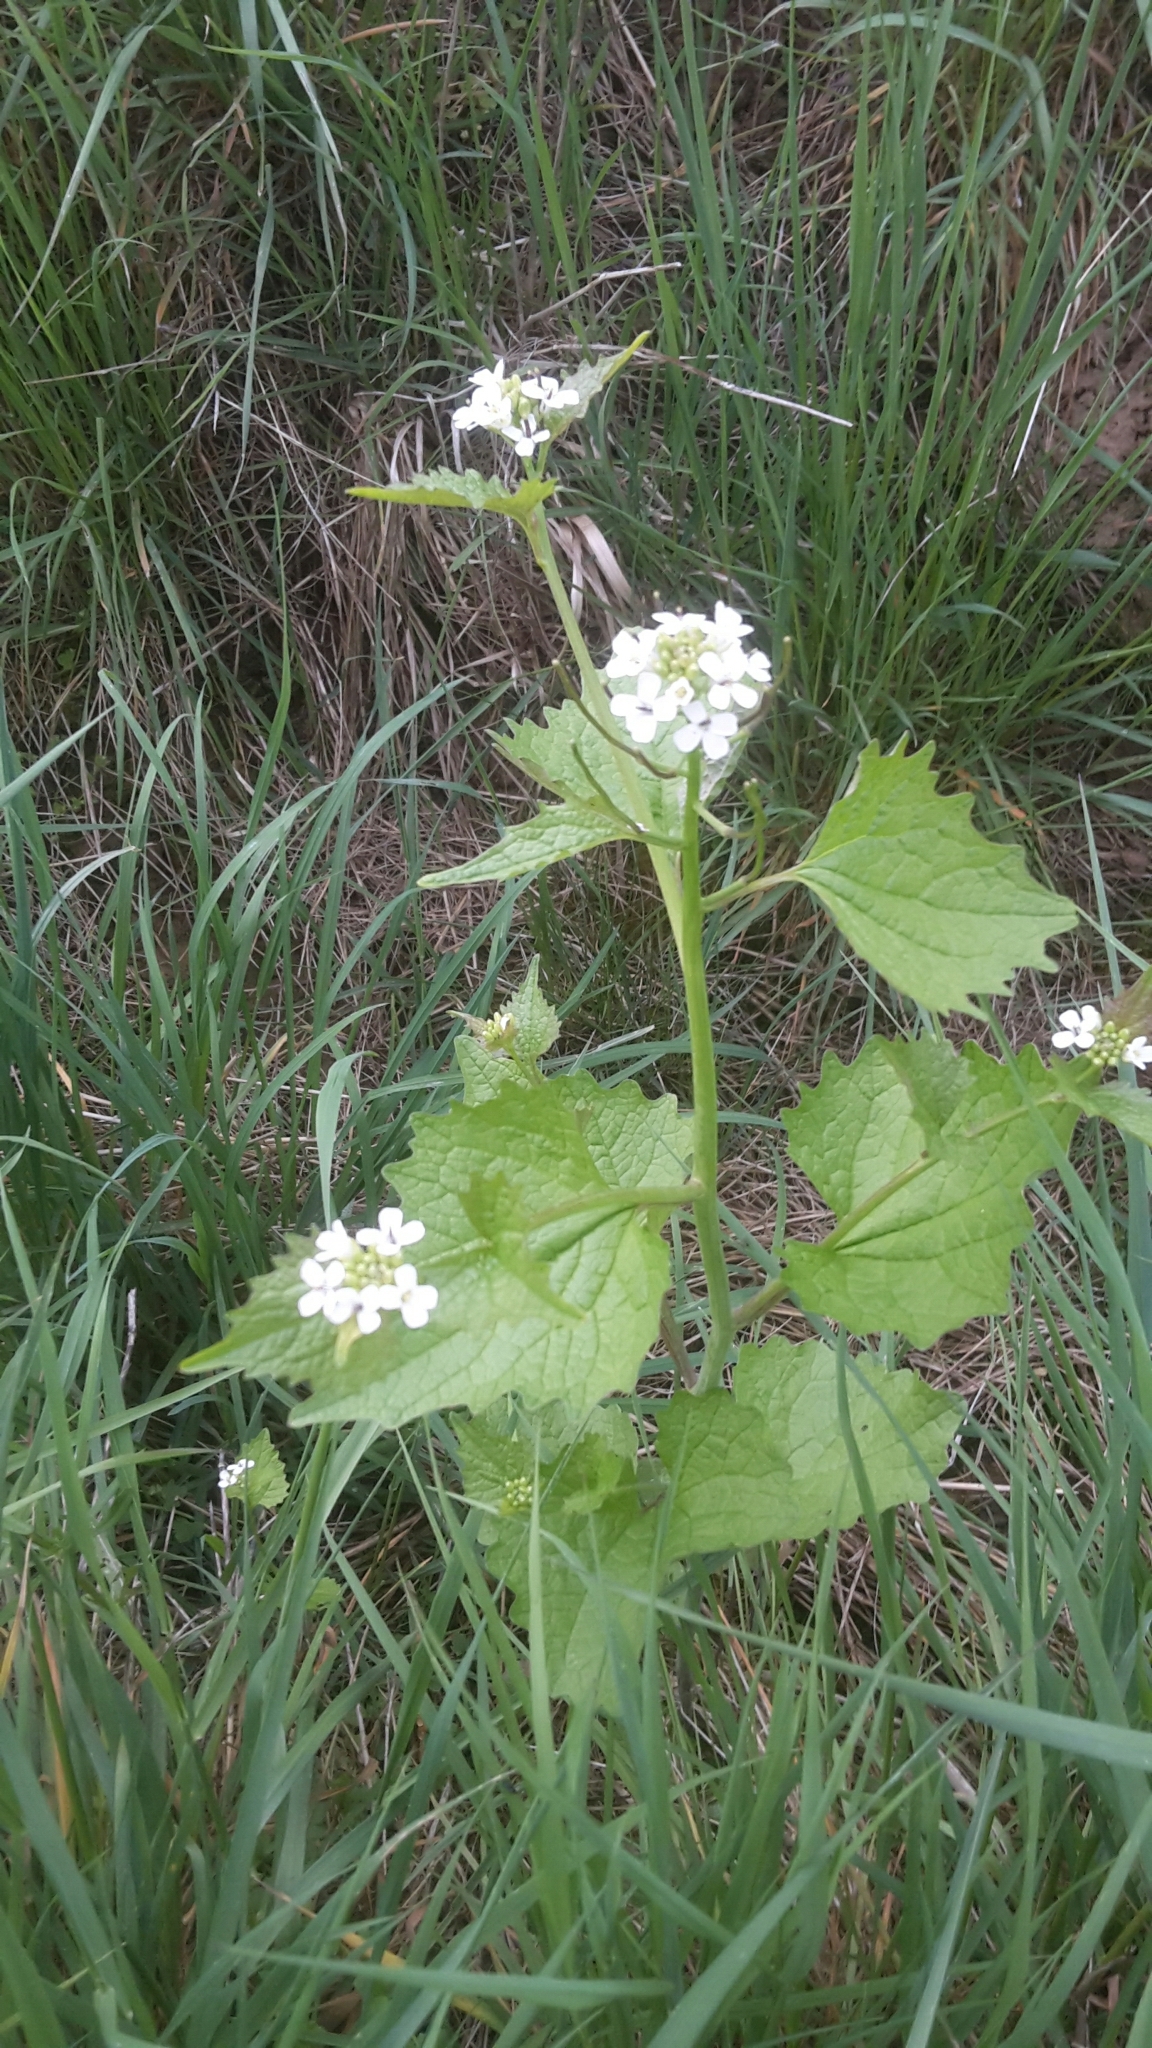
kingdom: Plantae
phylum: Tracheophyta
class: Magnoliopsida
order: Brassicales
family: Brassicaceae
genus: Alliaria
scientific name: Alliaria petiolata
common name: Garlic mustard
